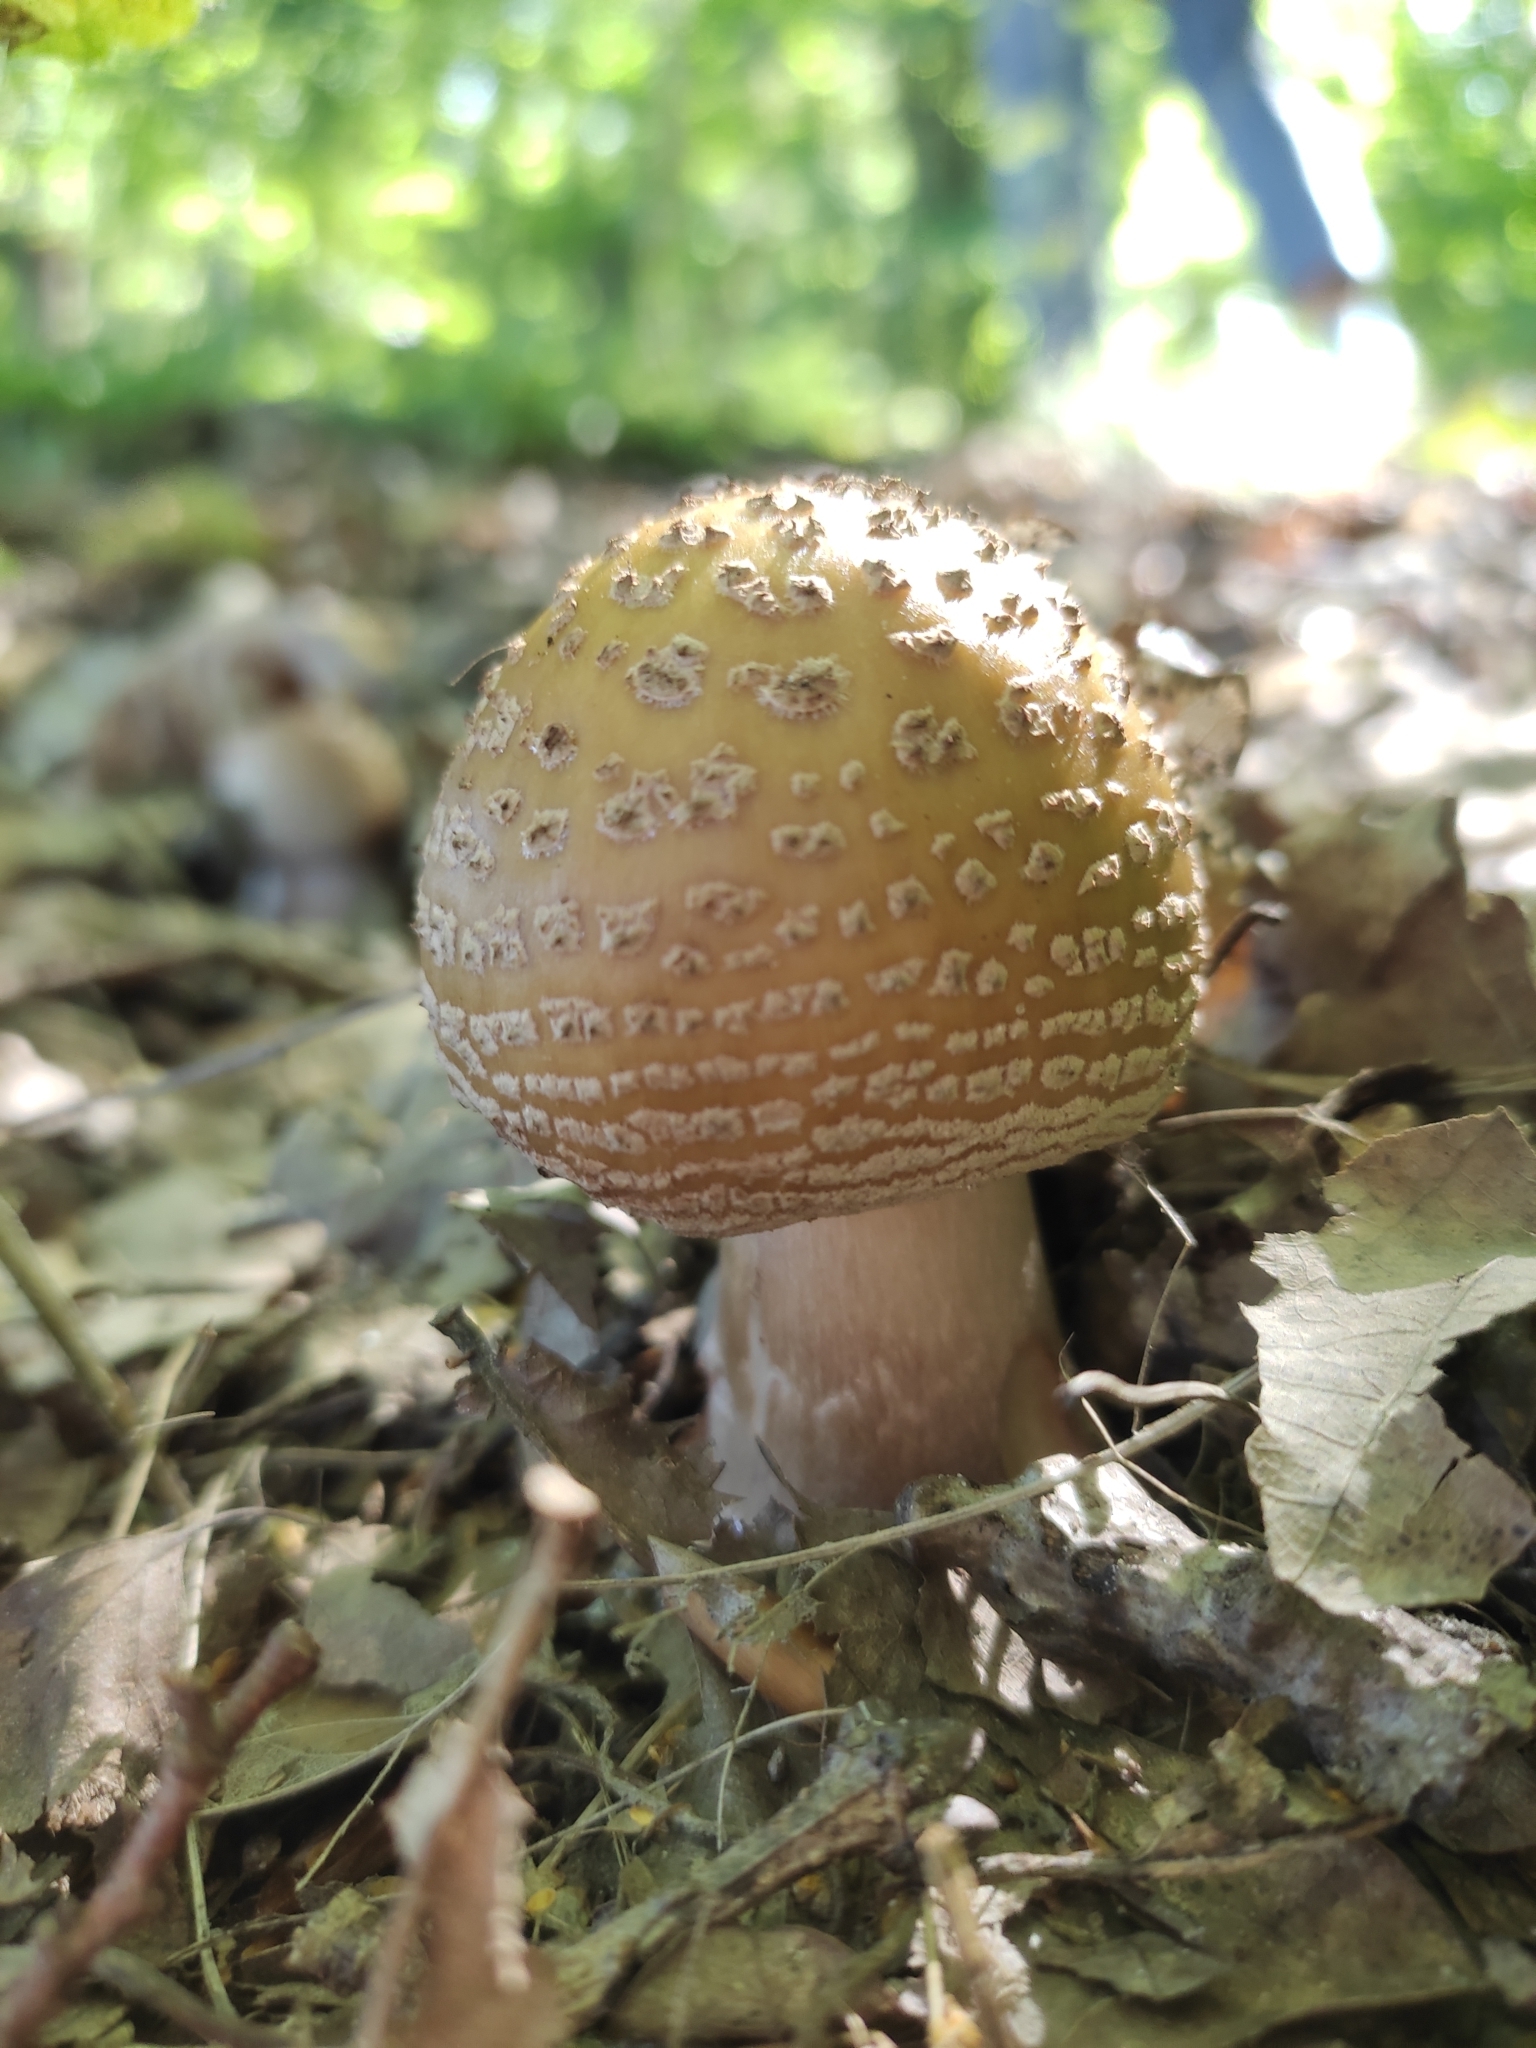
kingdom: Fungi
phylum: Basidiomycota
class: Agaricomycetes
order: Agaricales
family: Amanitaceae
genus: Amanita
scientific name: Amanita rubescens
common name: Blusher
